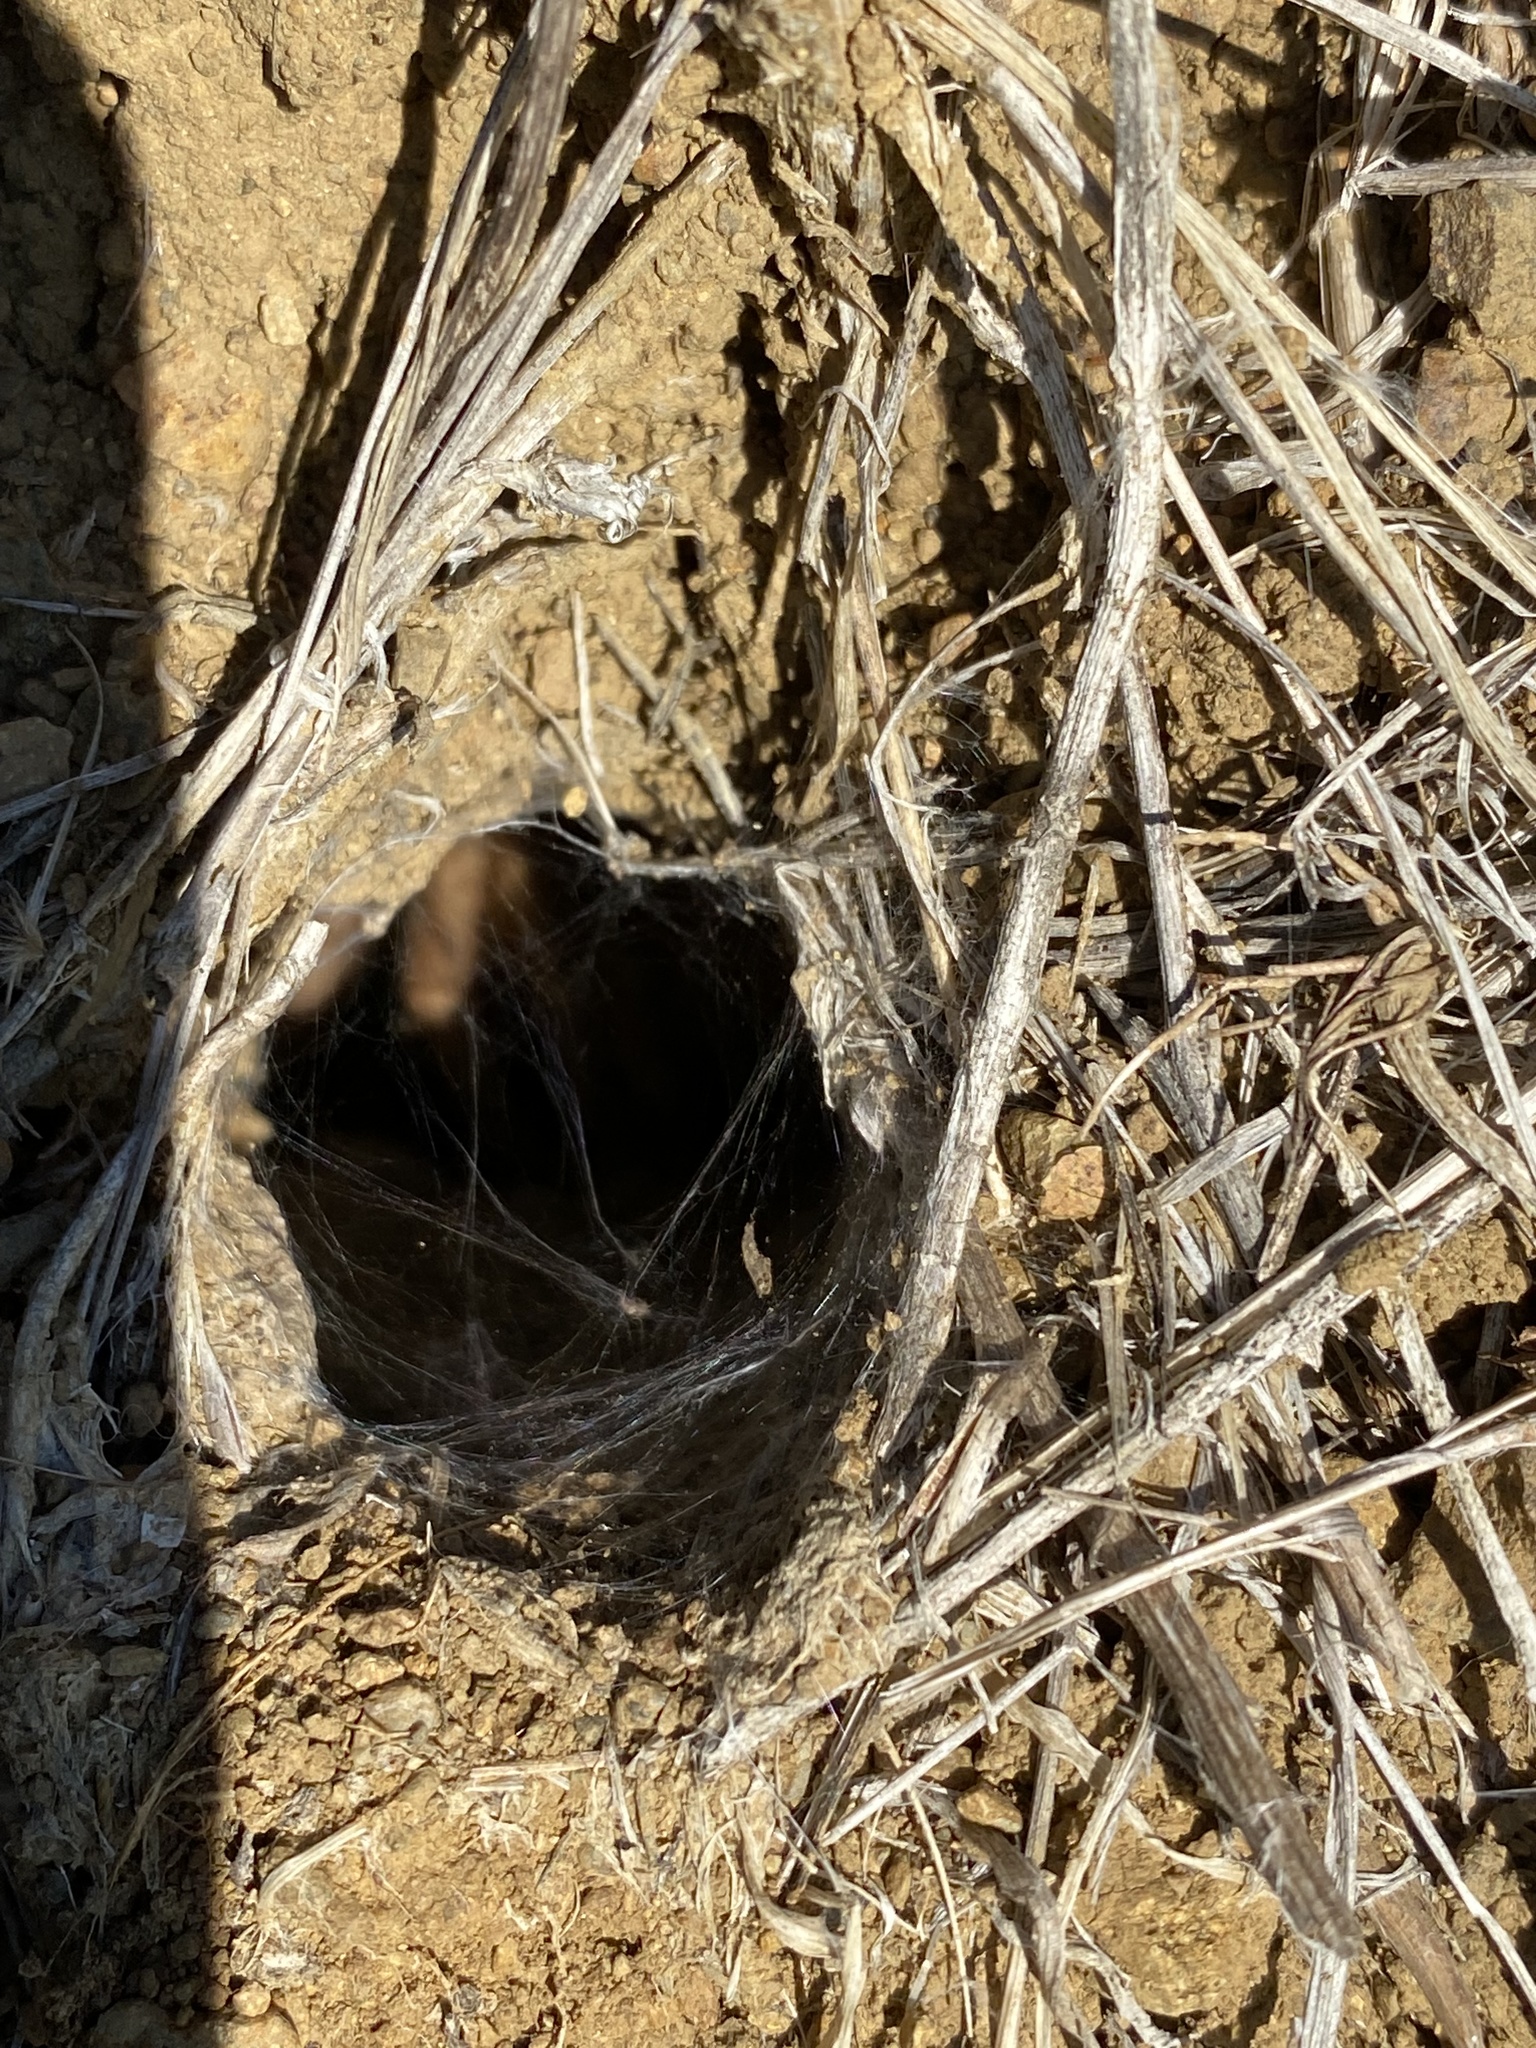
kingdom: Animalia
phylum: Arthropoda
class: Arachnida
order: Araneae
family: Theraphosidae
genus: Aphonopelma
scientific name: Aphonopelma iodius
